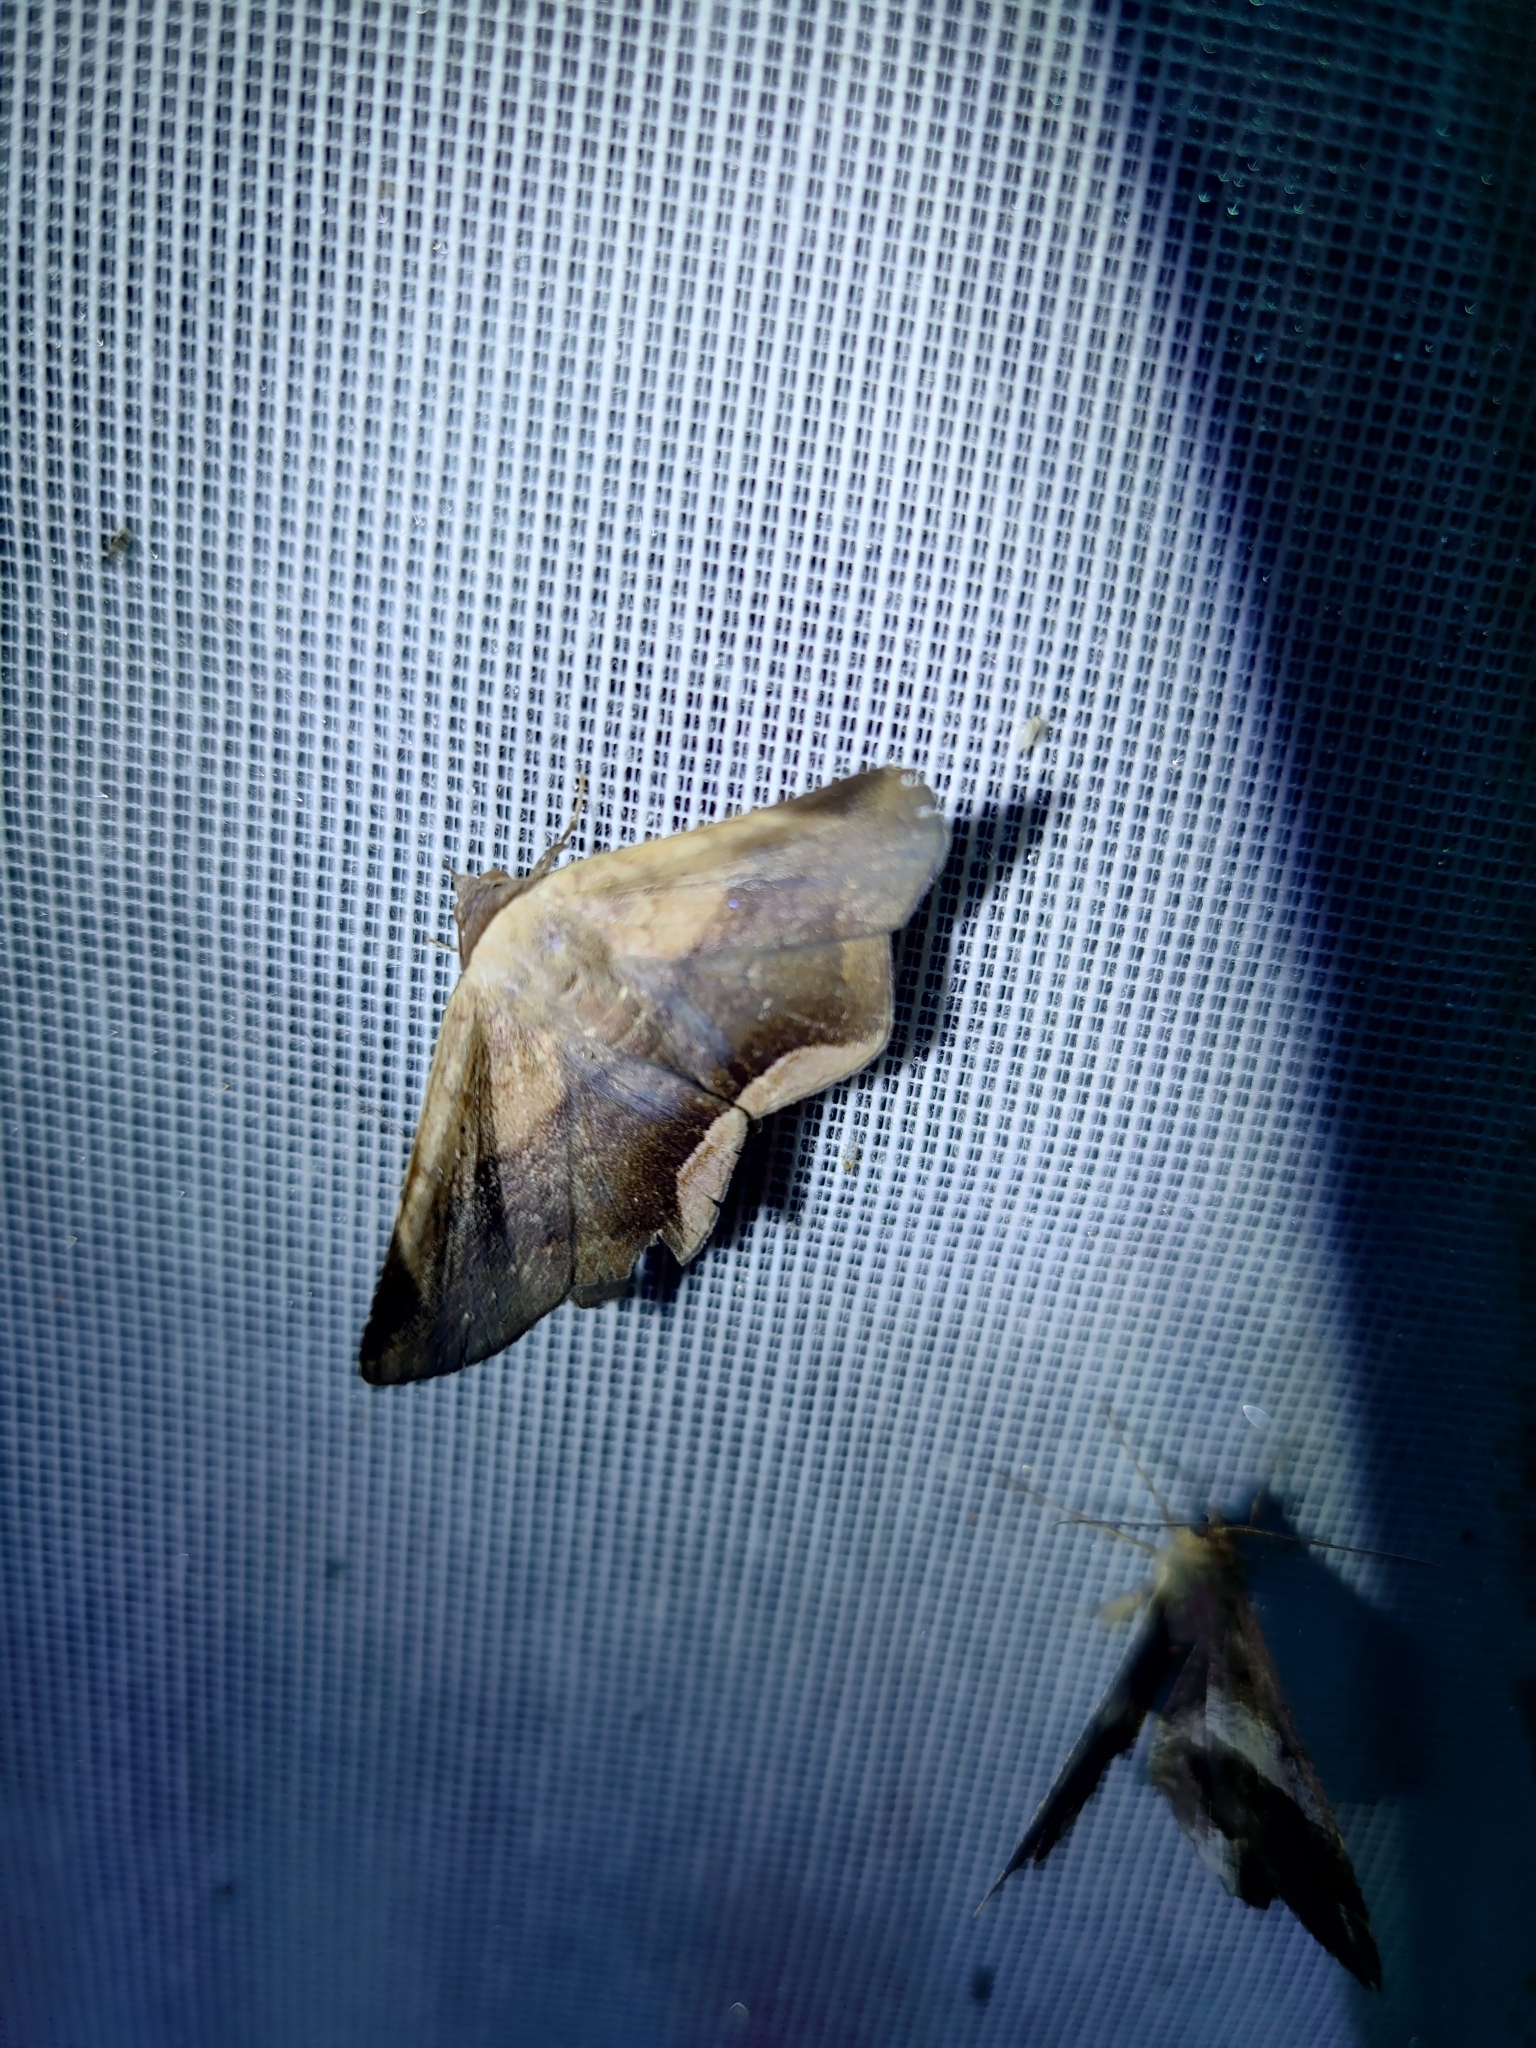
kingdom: Animalia
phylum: Arthropoda
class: Insecta
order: Lepidoptera
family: Erebidae
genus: Psimada
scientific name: Psimada quadripennis
